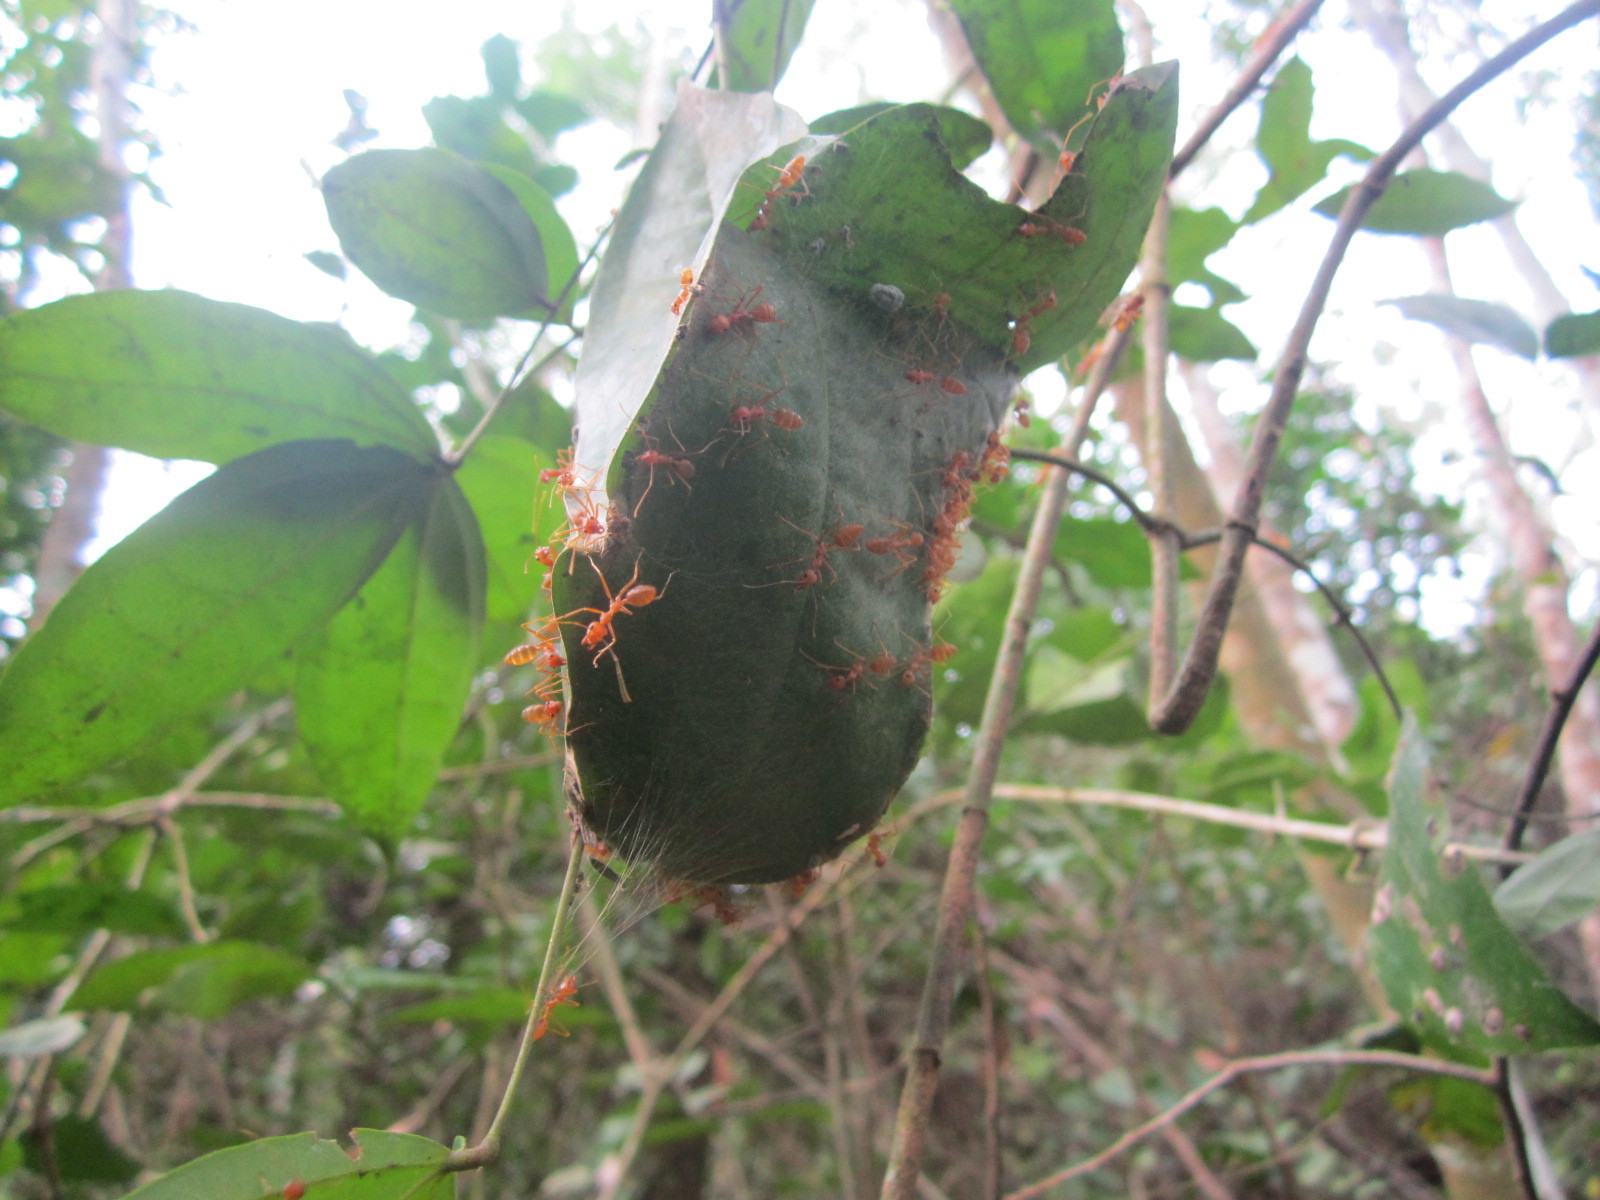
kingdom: Animalia
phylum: Arthropoda
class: Insecta
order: Hymenoptera
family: Formicidae
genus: Oecophylla
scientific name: Oecophylla longinoda
